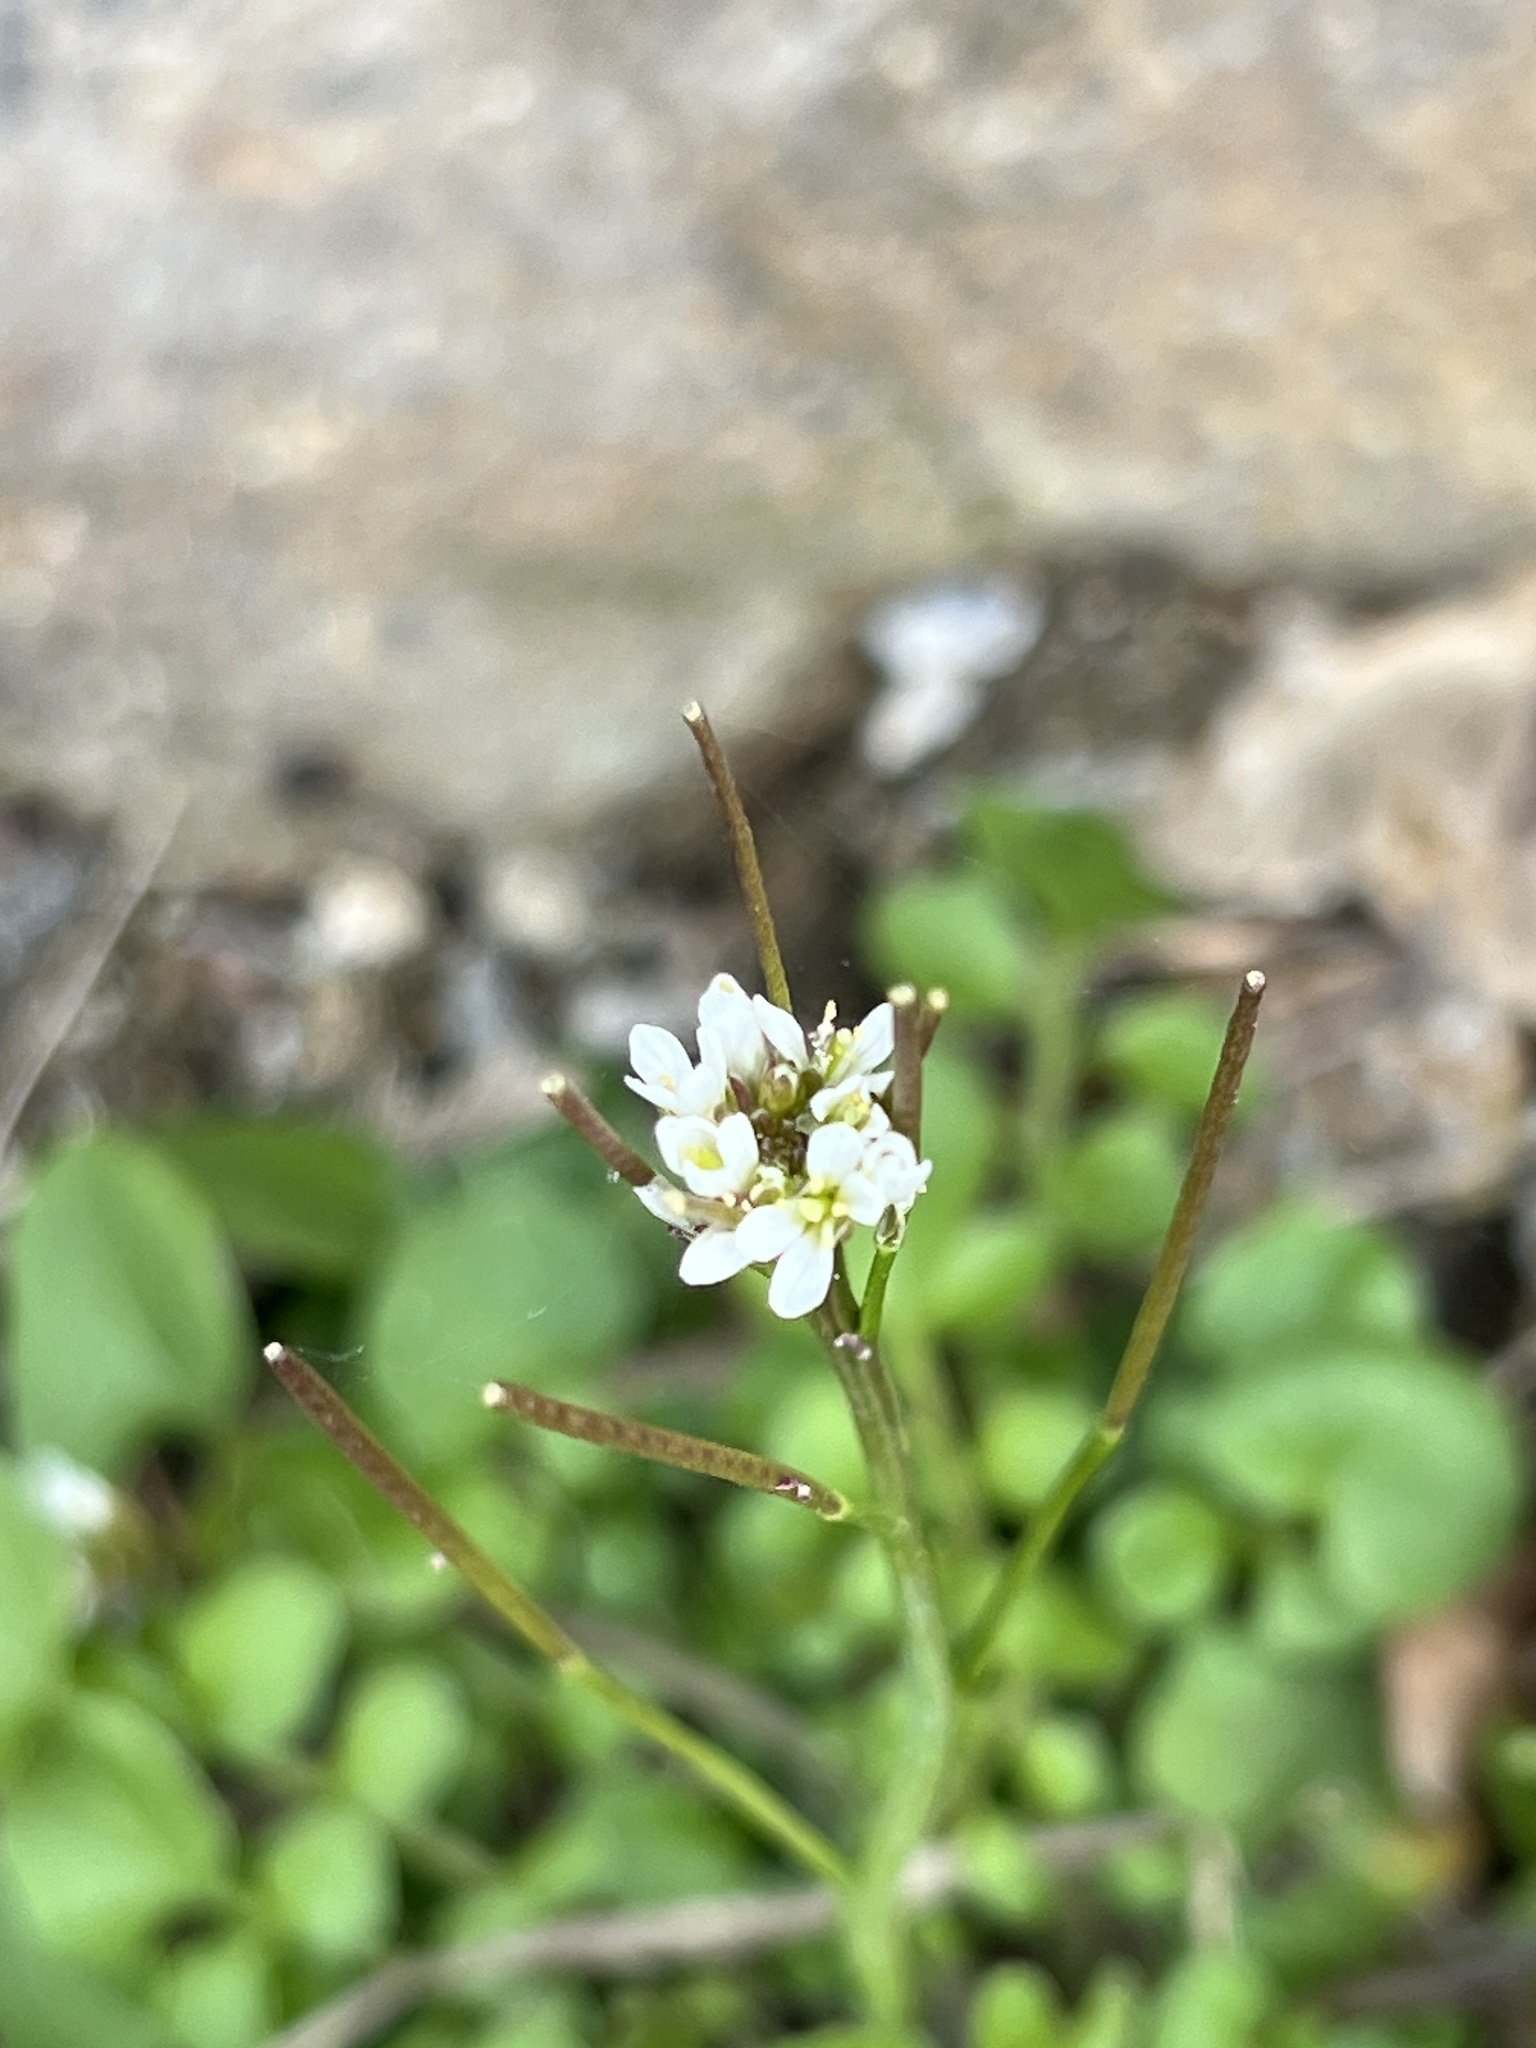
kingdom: Plantae
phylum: Tracheophyta
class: Magnoliopsida
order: Brassicales
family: Brassicaceae
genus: Cardamine
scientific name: Cardamine hirsuta
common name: Hairy bittercress
